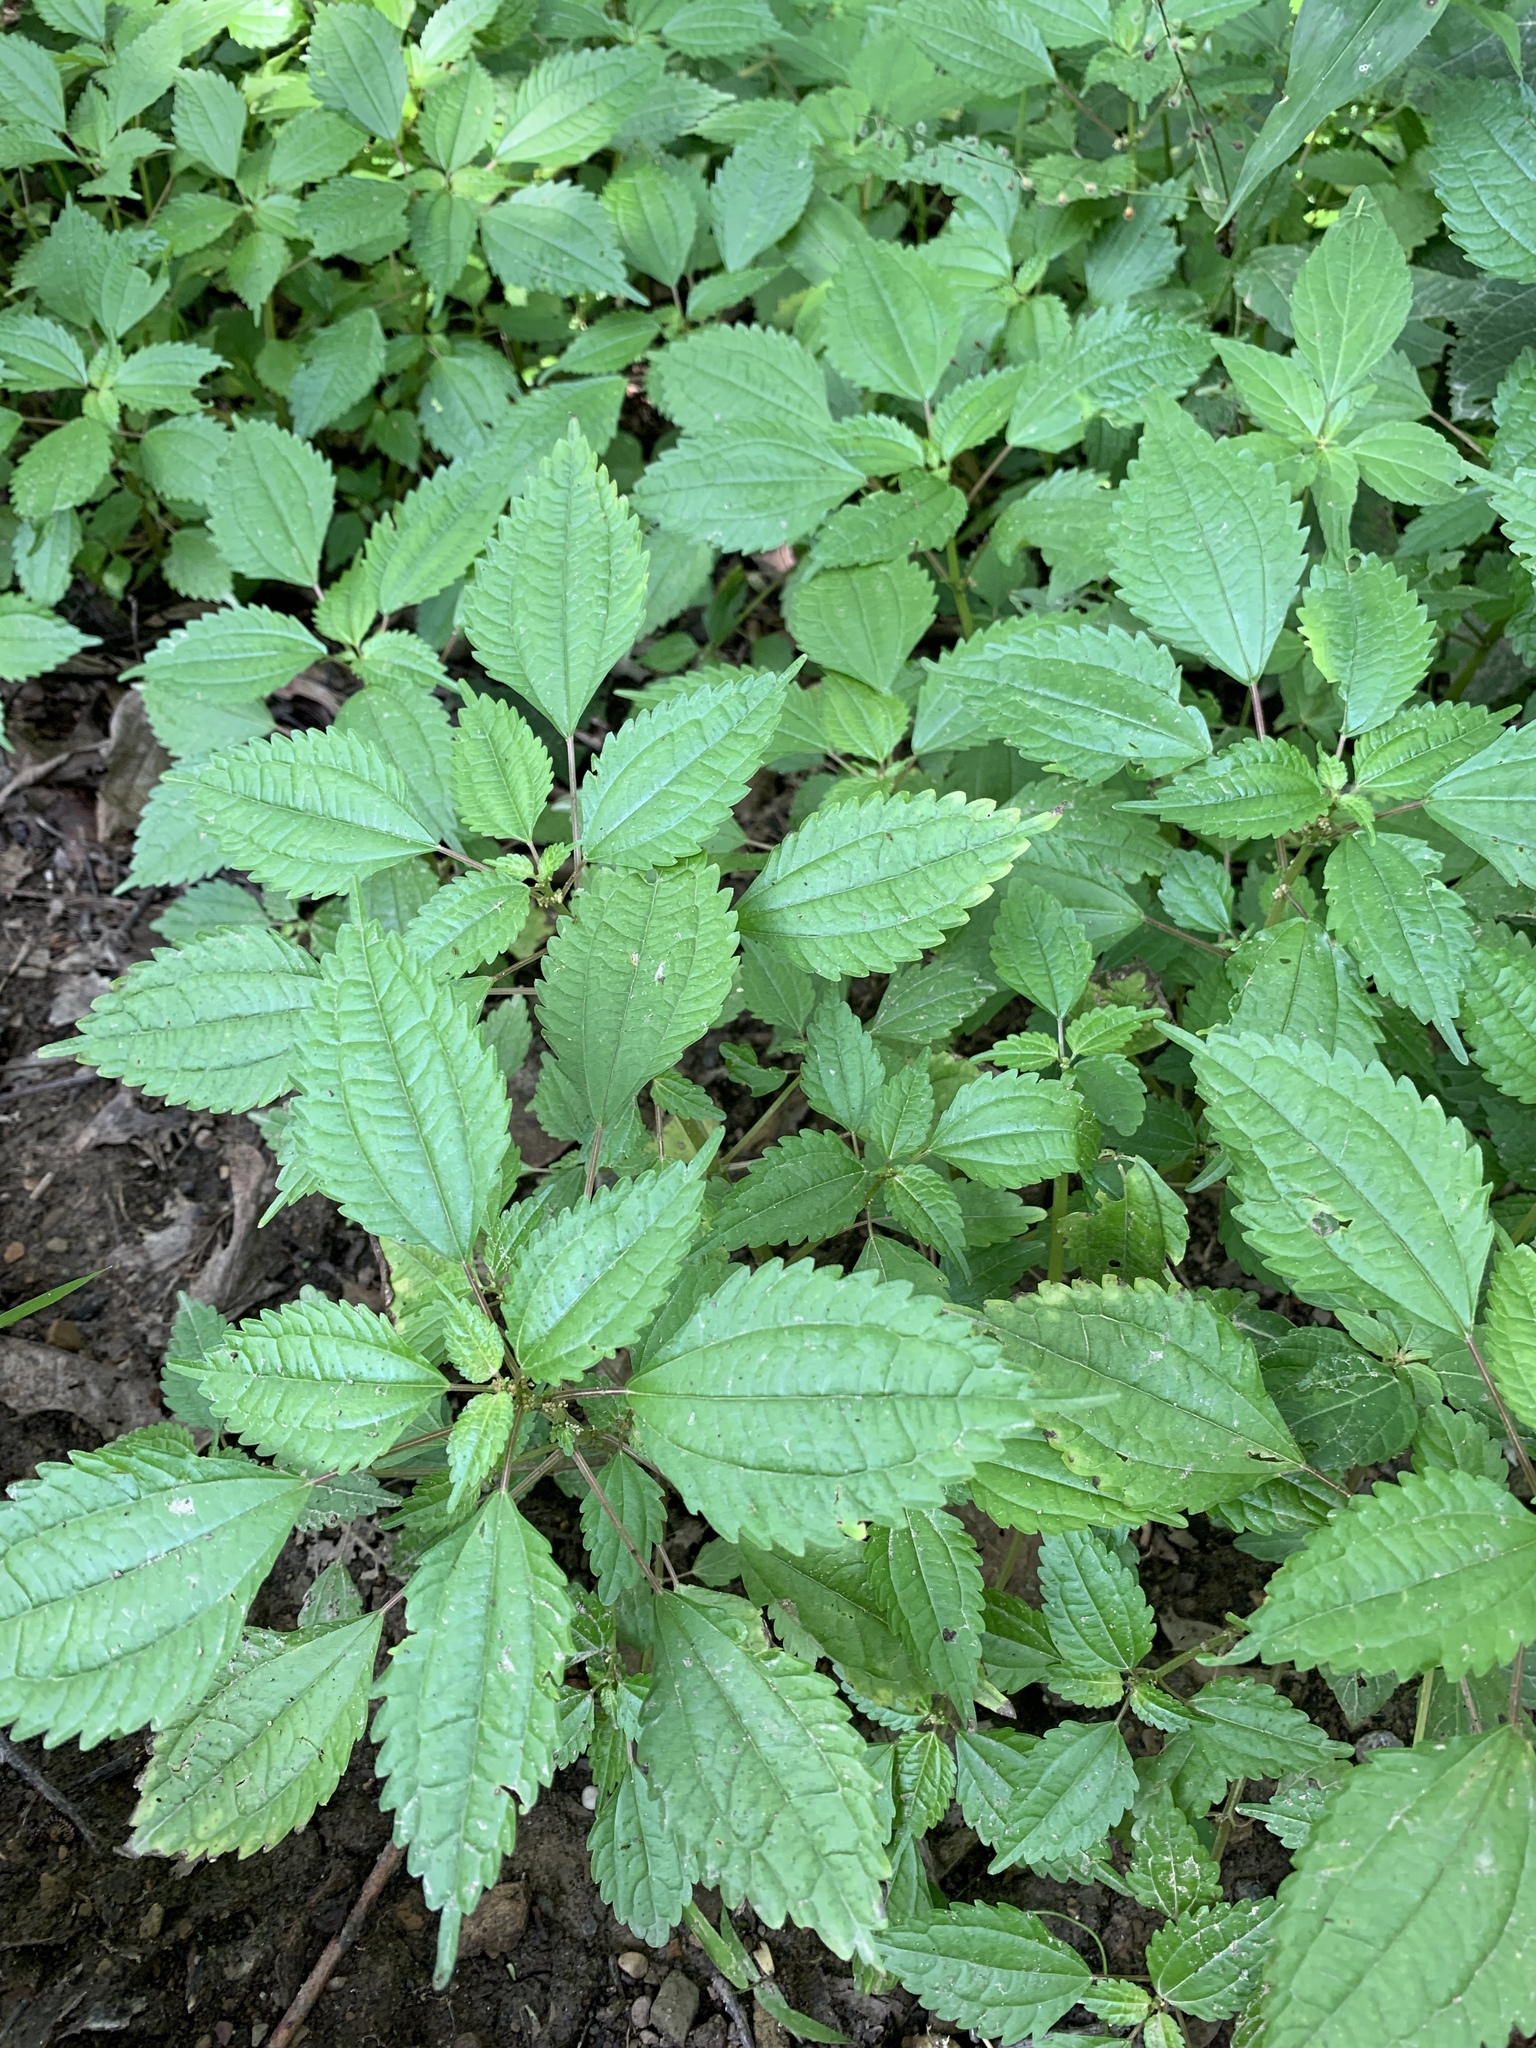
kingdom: Plantae
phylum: Tracheophyta
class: Magnoliopsida
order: Rosales
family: Urticaceae
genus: Pilea
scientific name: Pilea pumila
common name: Clearweed
